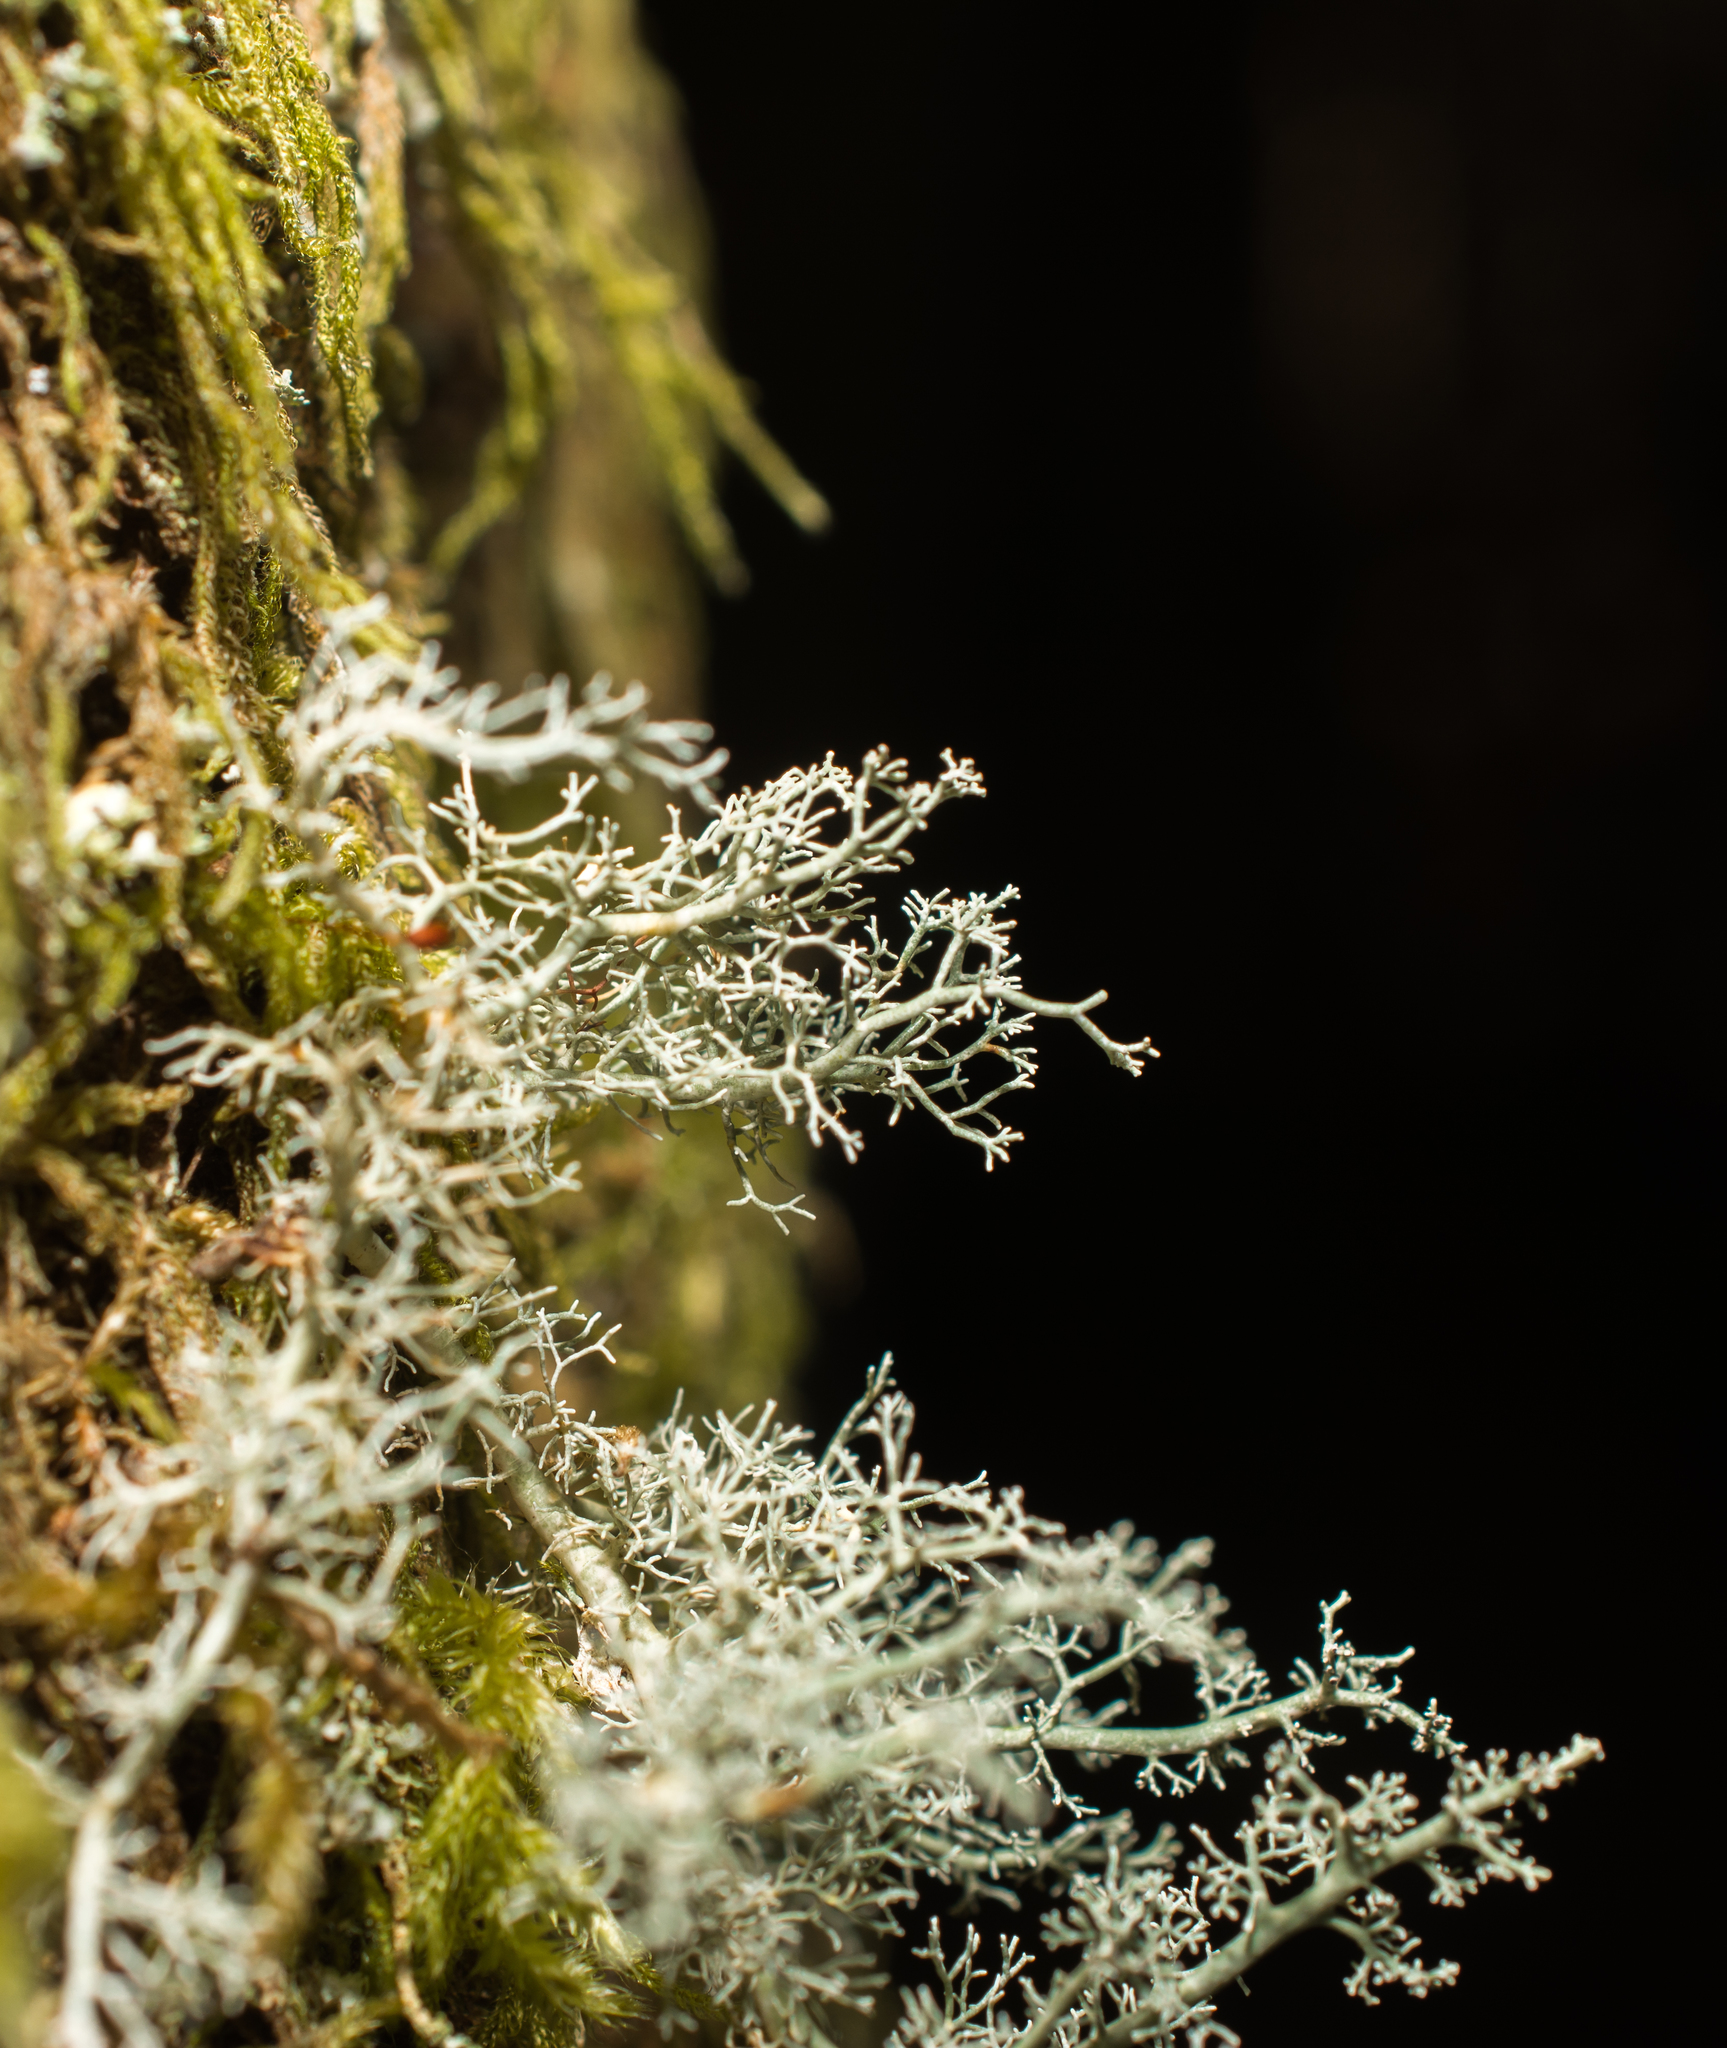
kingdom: Fungi
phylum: Ascomycota
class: Lecanoromycetes
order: Lecanorales
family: Sphaerophoraceae
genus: Sphaerophorus
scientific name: Sphaerophorus globosus
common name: Globe ball lichen
